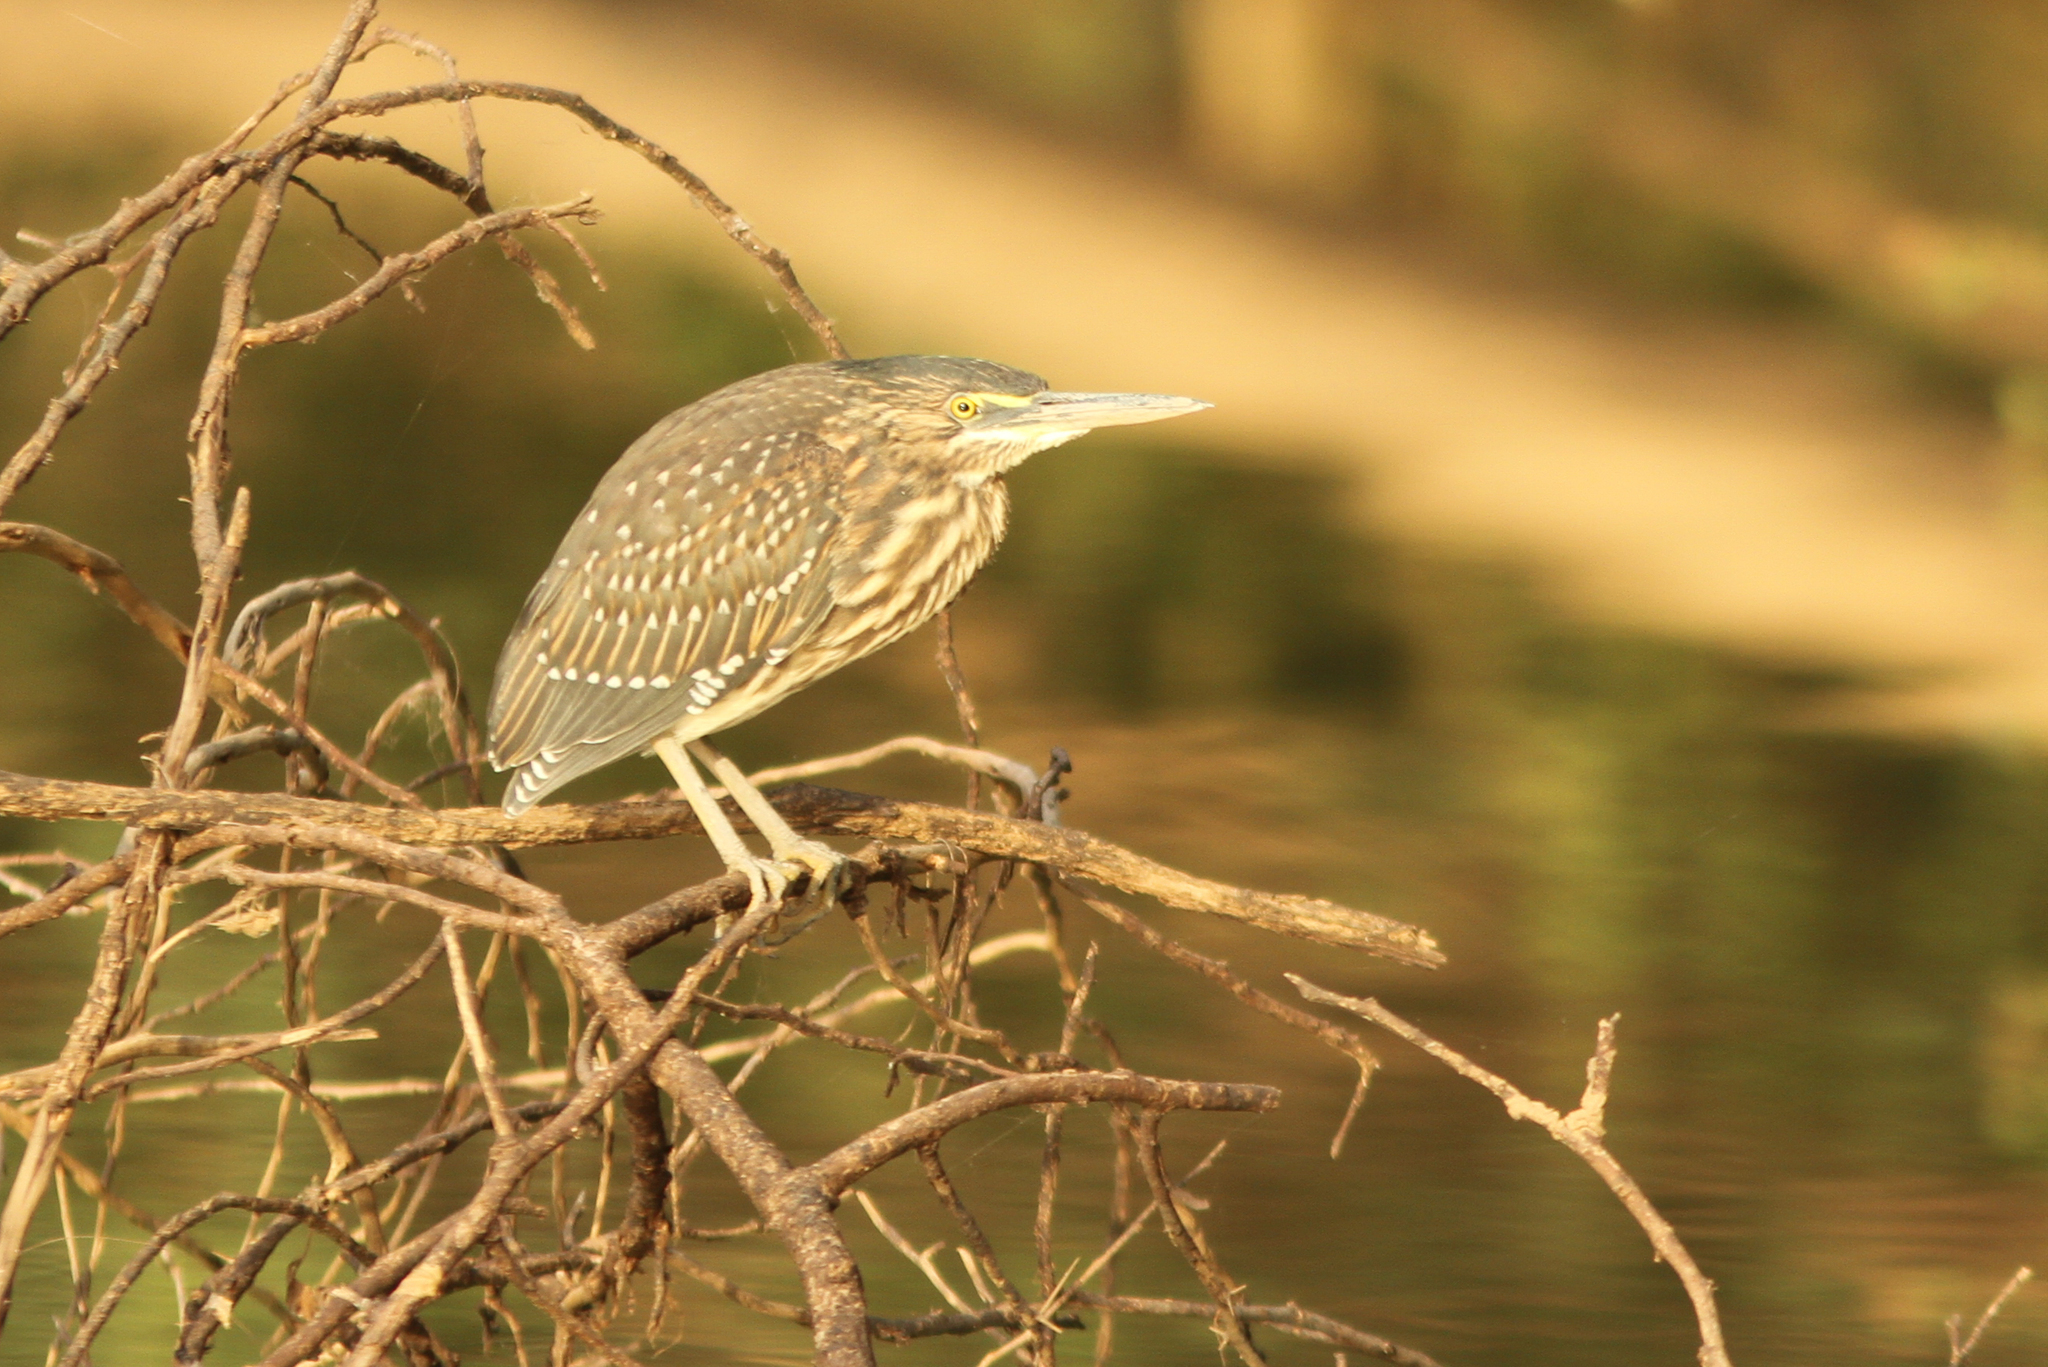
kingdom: Animalia
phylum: Chordata
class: Aves
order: Pelecaniformes
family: Ardeidae
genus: Butorides
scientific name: Butorides striata
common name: Striated heron
